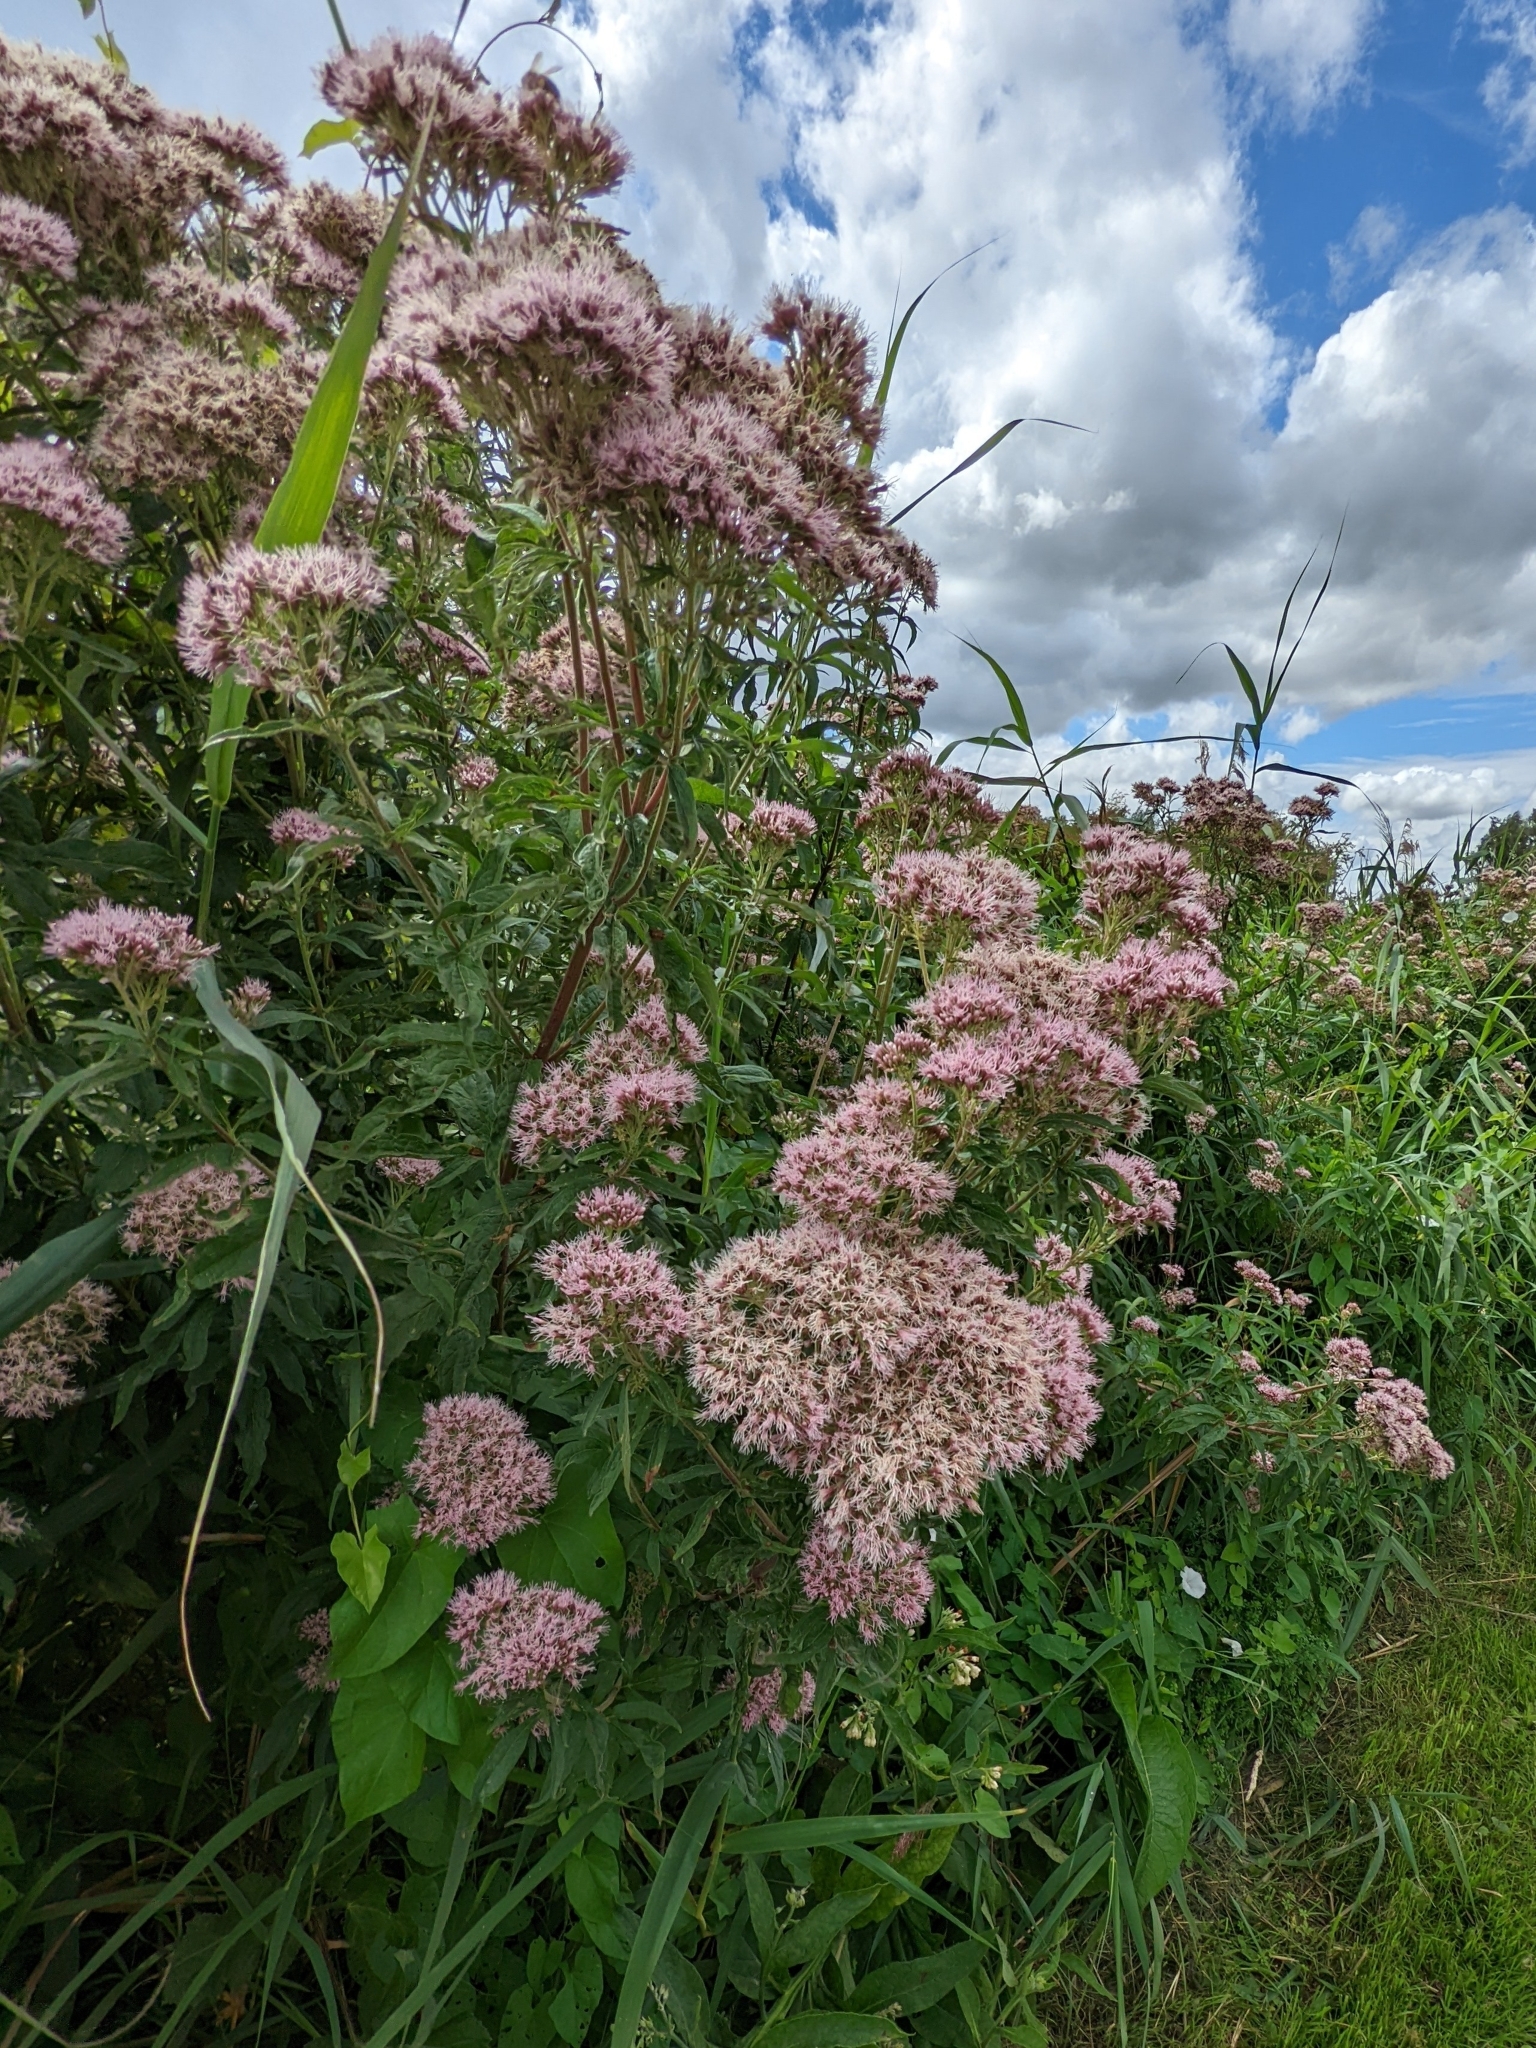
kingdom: Plantae
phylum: Tracheophyta
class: Magnoliopsida
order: Asterales
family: Asteraceae
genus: Eupatorium
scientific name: Eupatorium cannabinum
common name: Hemp-agrimony
